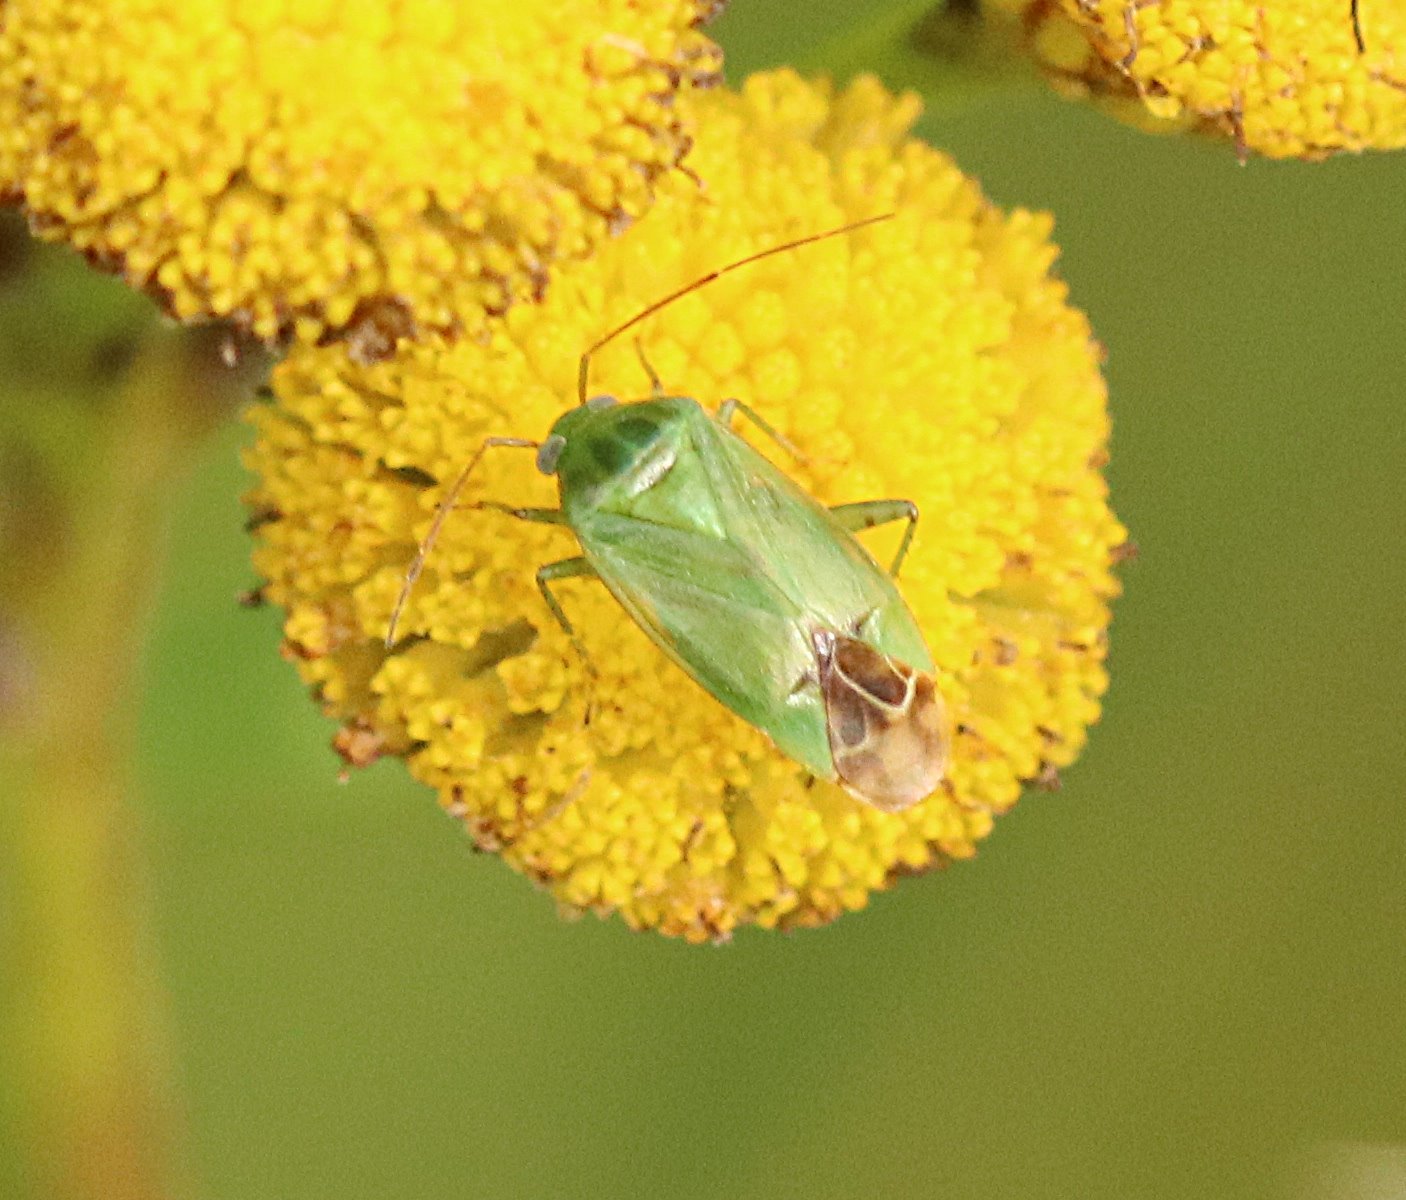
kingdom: Animalia
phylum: Arthropoda
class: Insecta
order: Hemiptera
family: Miridae
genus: Apolygus
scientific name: Apolygus lucorum
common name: Plant bug
